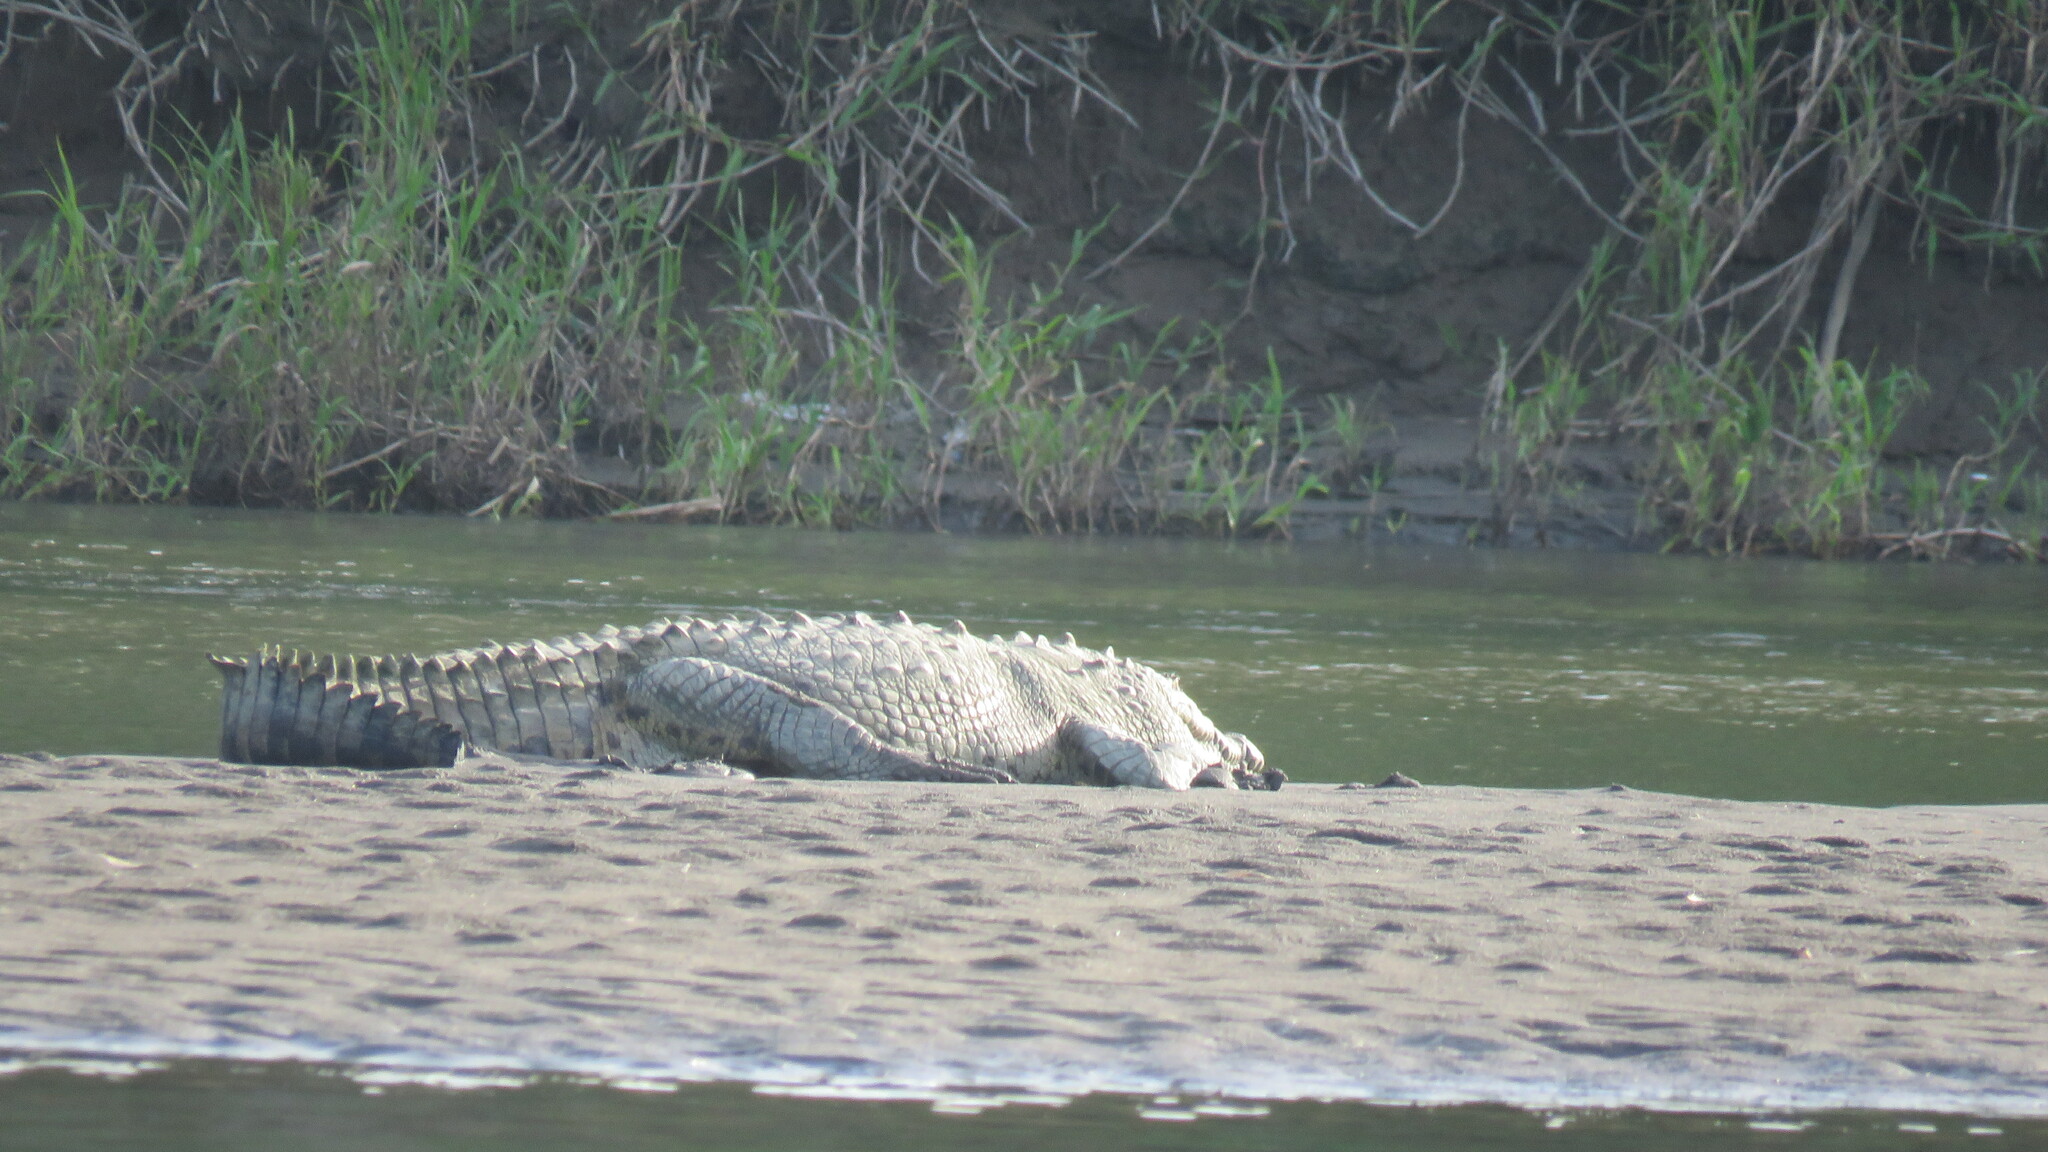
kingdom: Animalia
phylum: Chordata
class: Crocodylia
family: Crocodylidae
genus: Crocodylus
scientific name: Crocodylus acutus
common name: American crocodile
